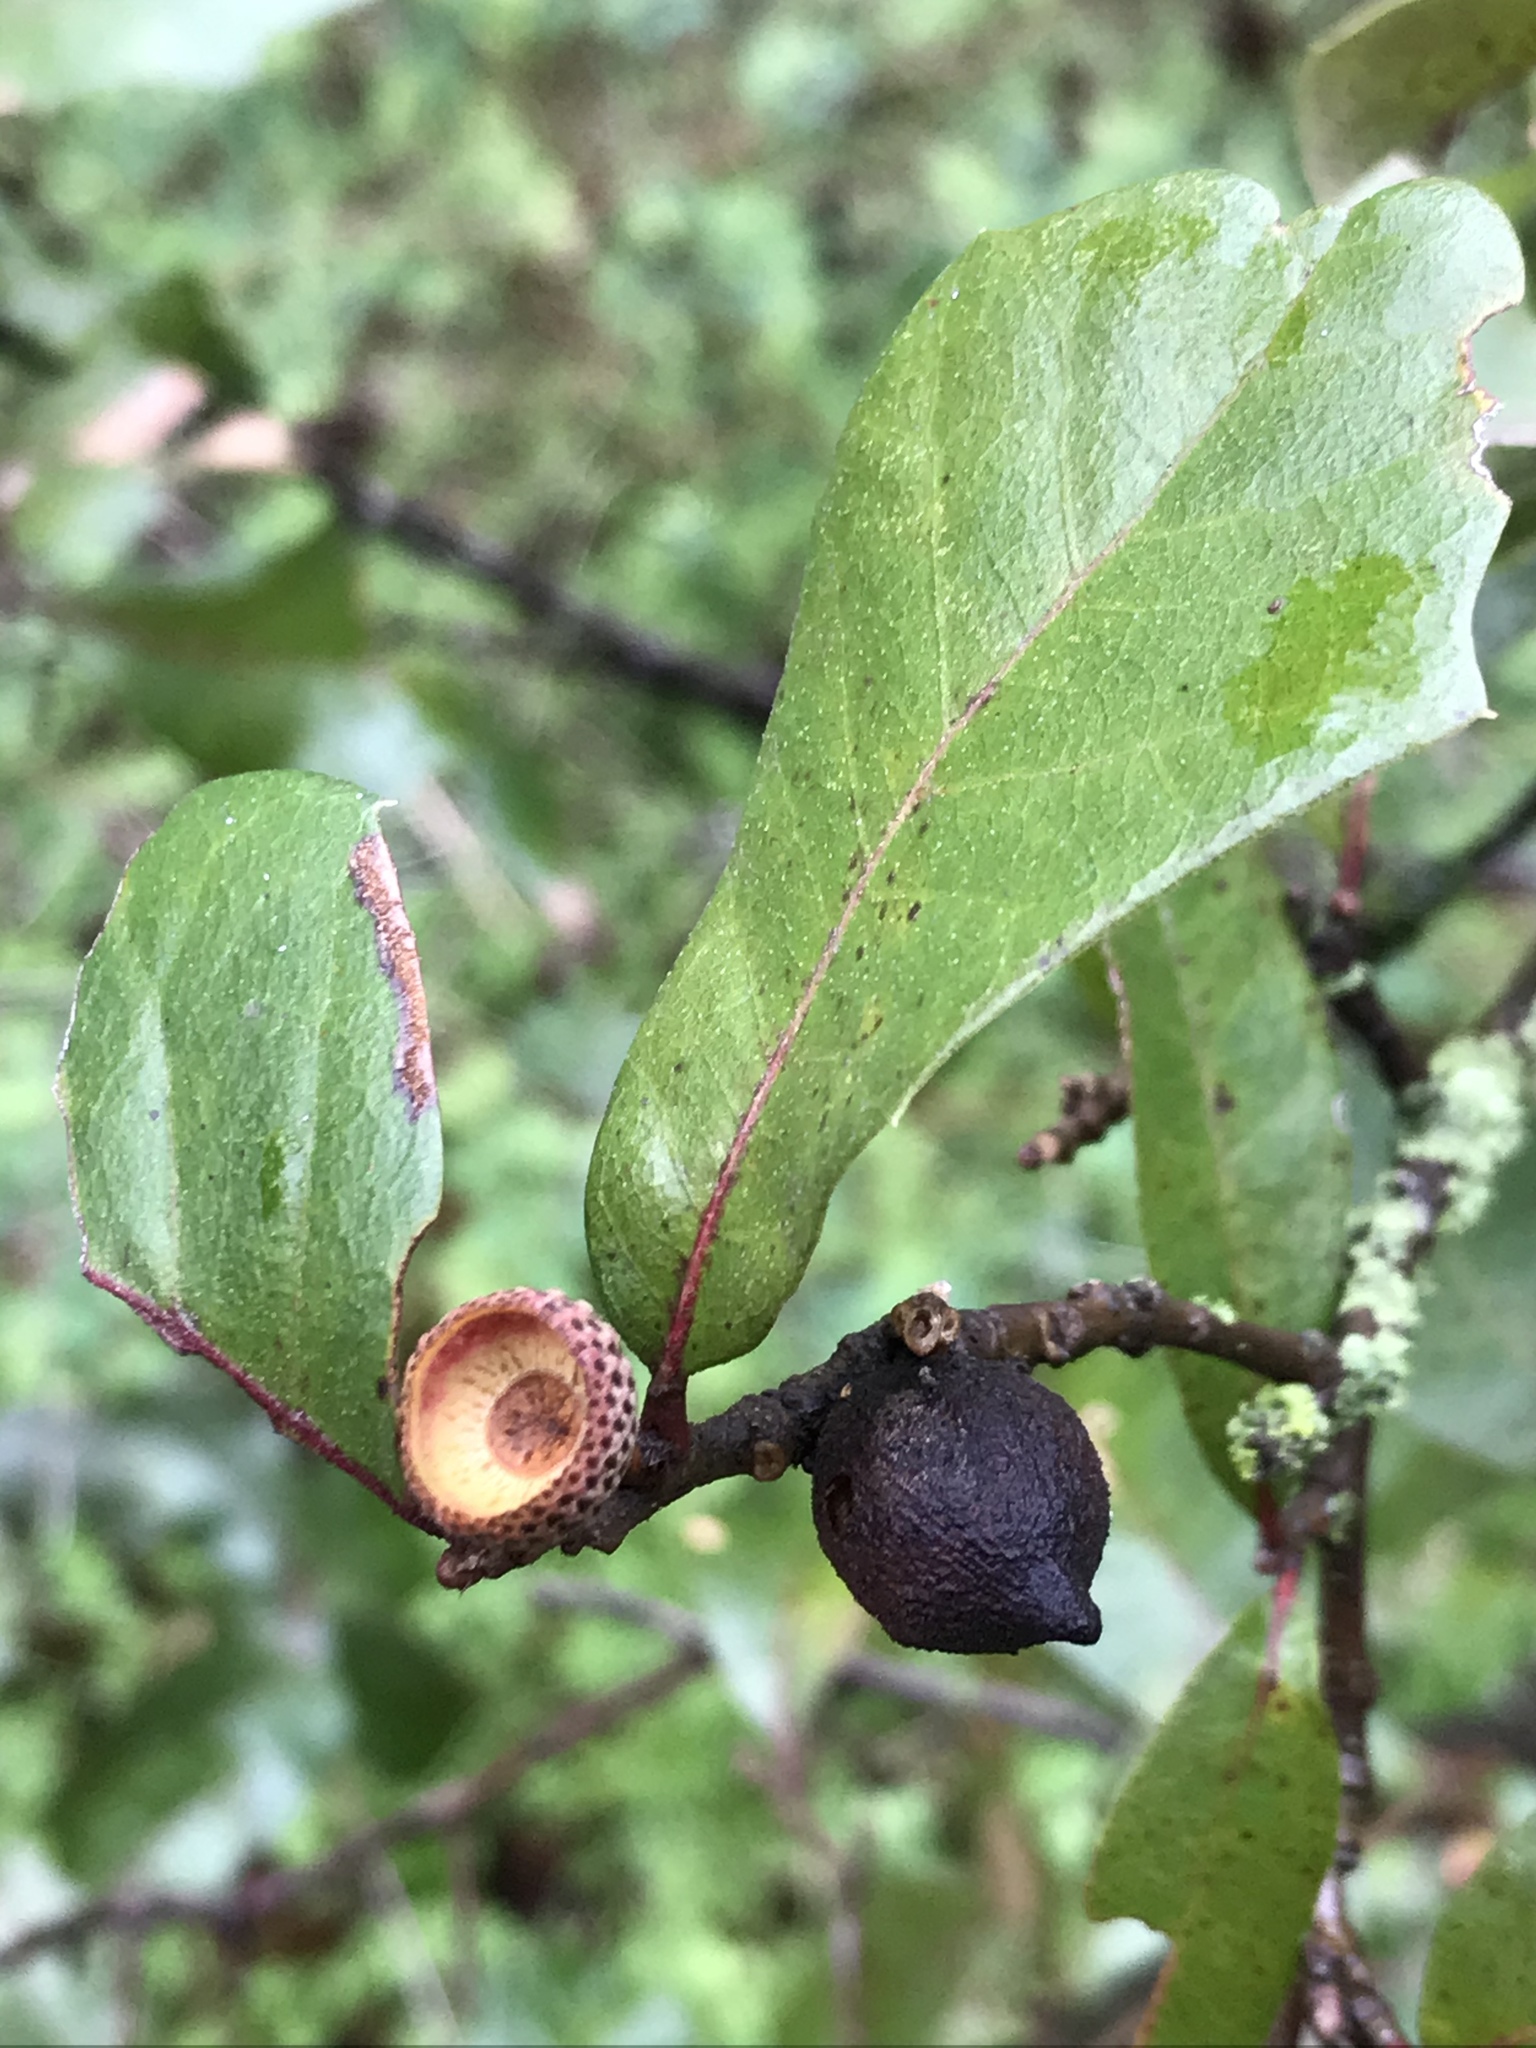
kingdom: Plantae
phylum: Tracheophyta
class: Magnoliopsida
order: Fagales
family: Fagaceae
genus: Quercus
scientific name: Quercus fusiformis
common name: Texas live oak
